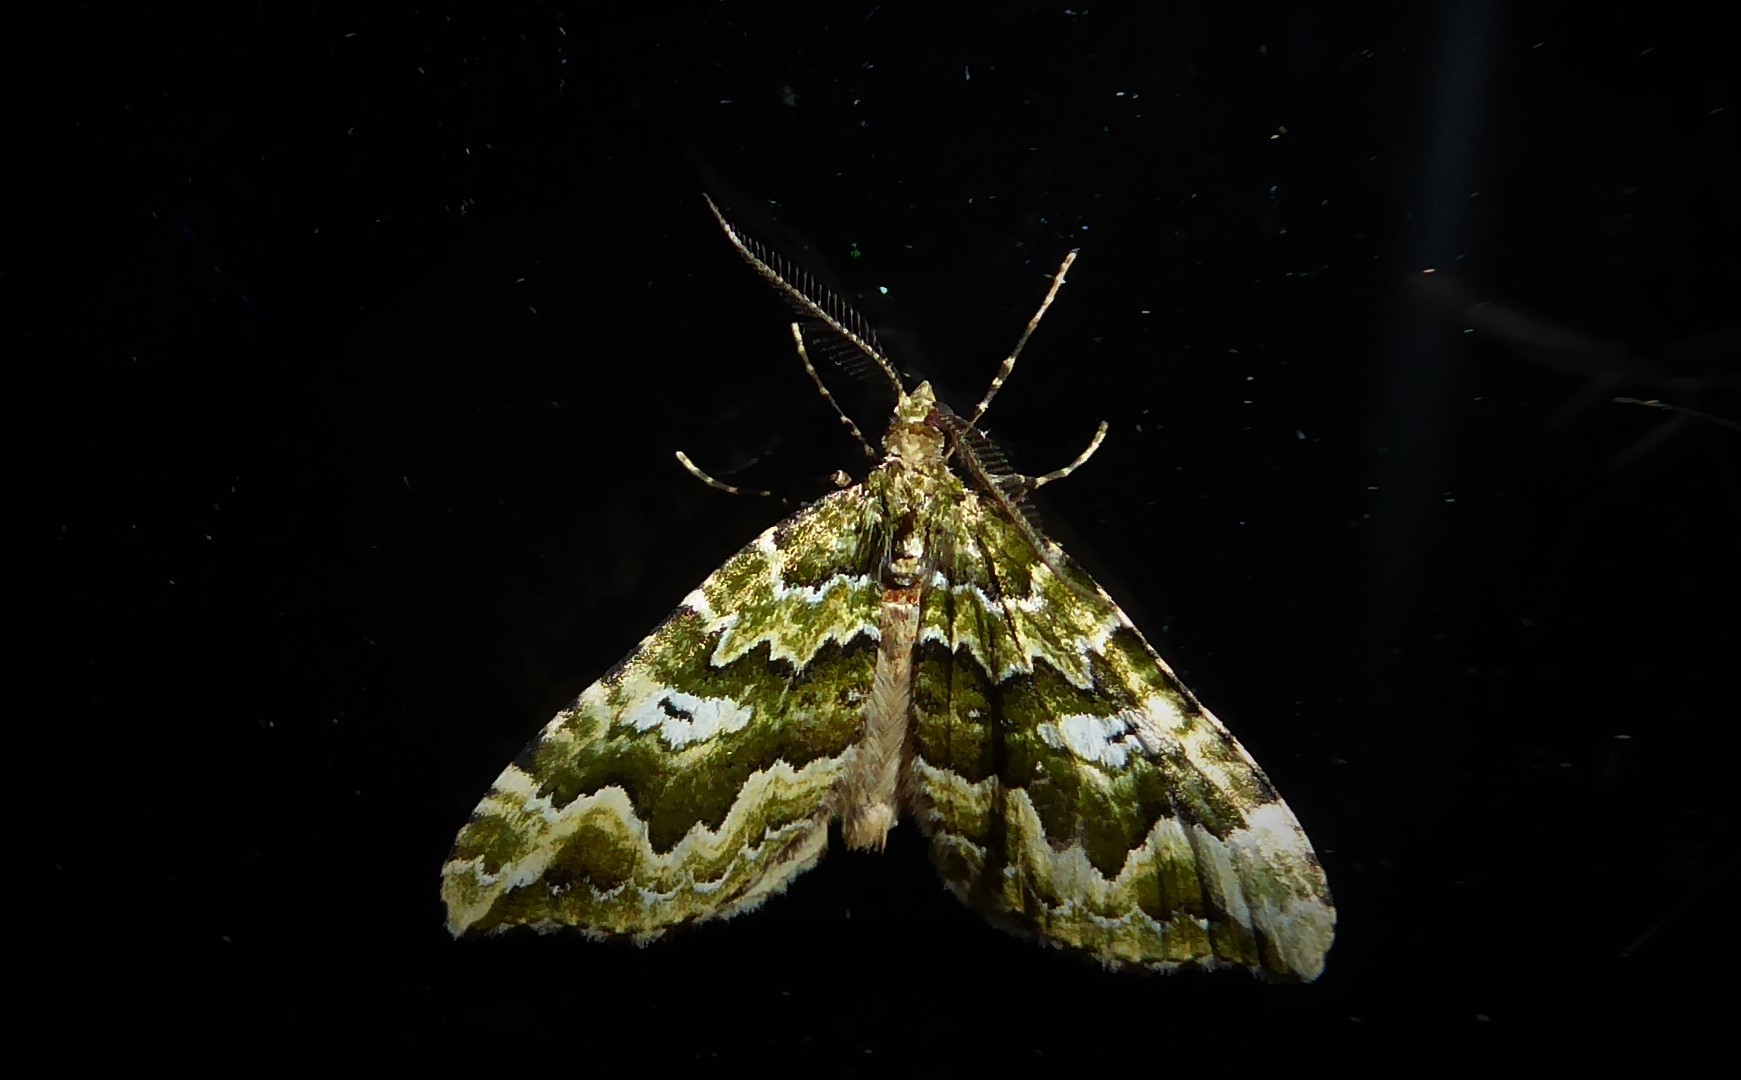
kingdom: Animalia
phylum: Arthropoda
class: Insecta
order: Lepidoptera
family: Geometridae
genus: Asaphodes
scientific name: Asaphodes beata
